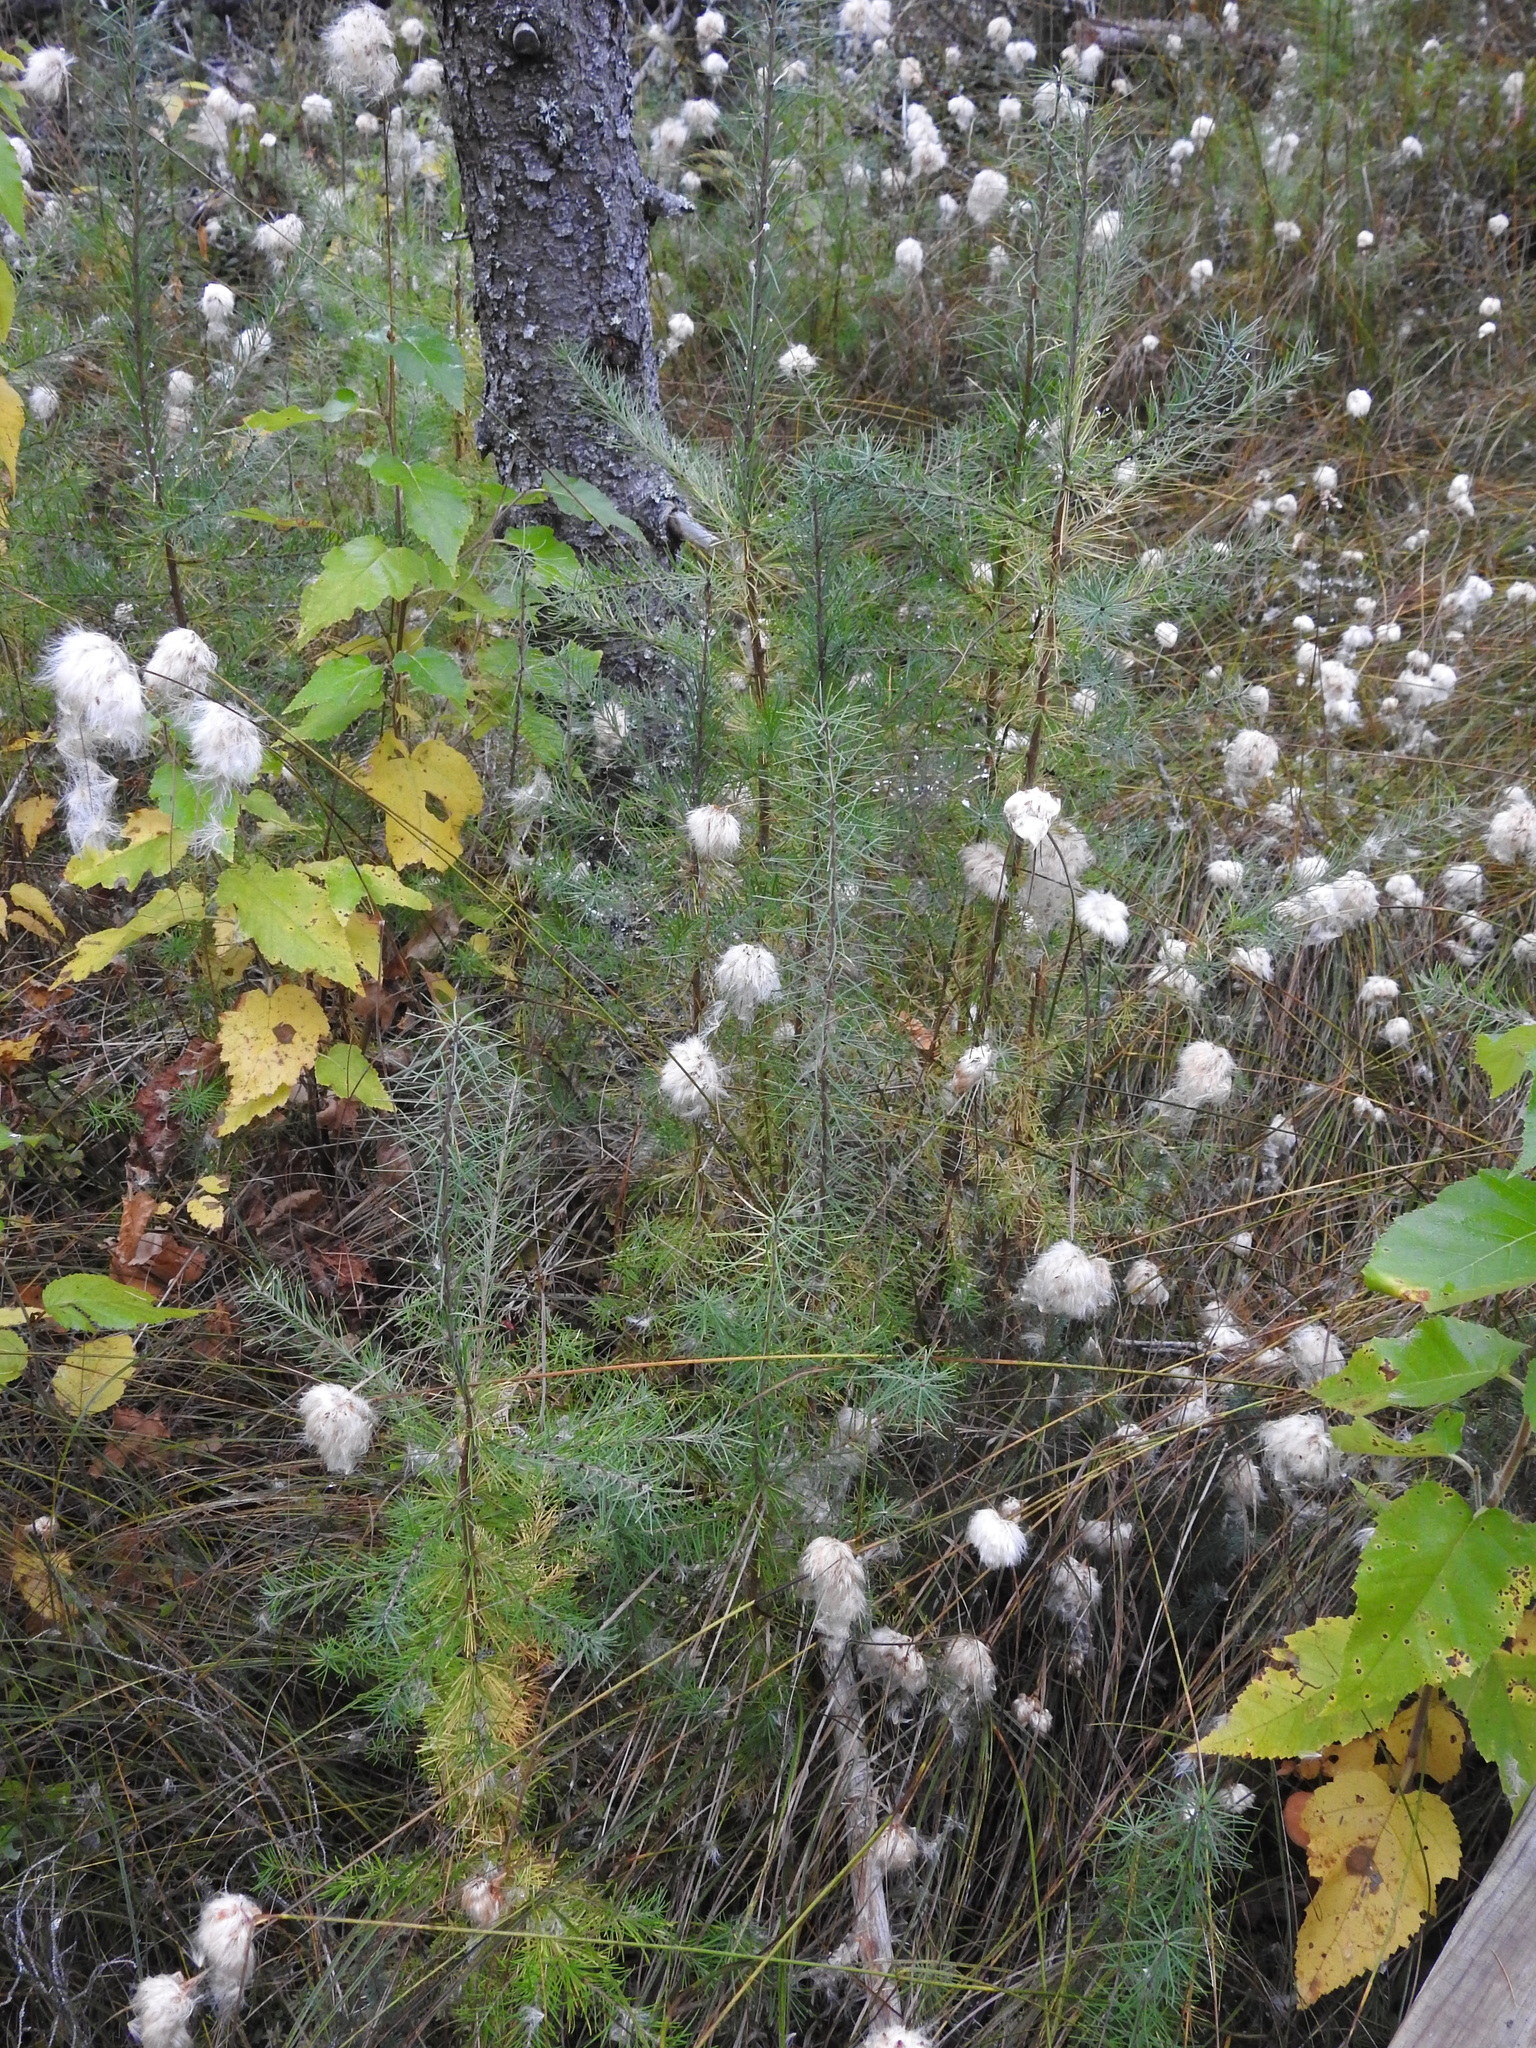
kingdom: Plantae
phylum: Tracheophyta
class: Pinopsida
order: Pinales
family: Pinaceae
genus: Larix
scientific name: Larix laricina
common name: American larch
